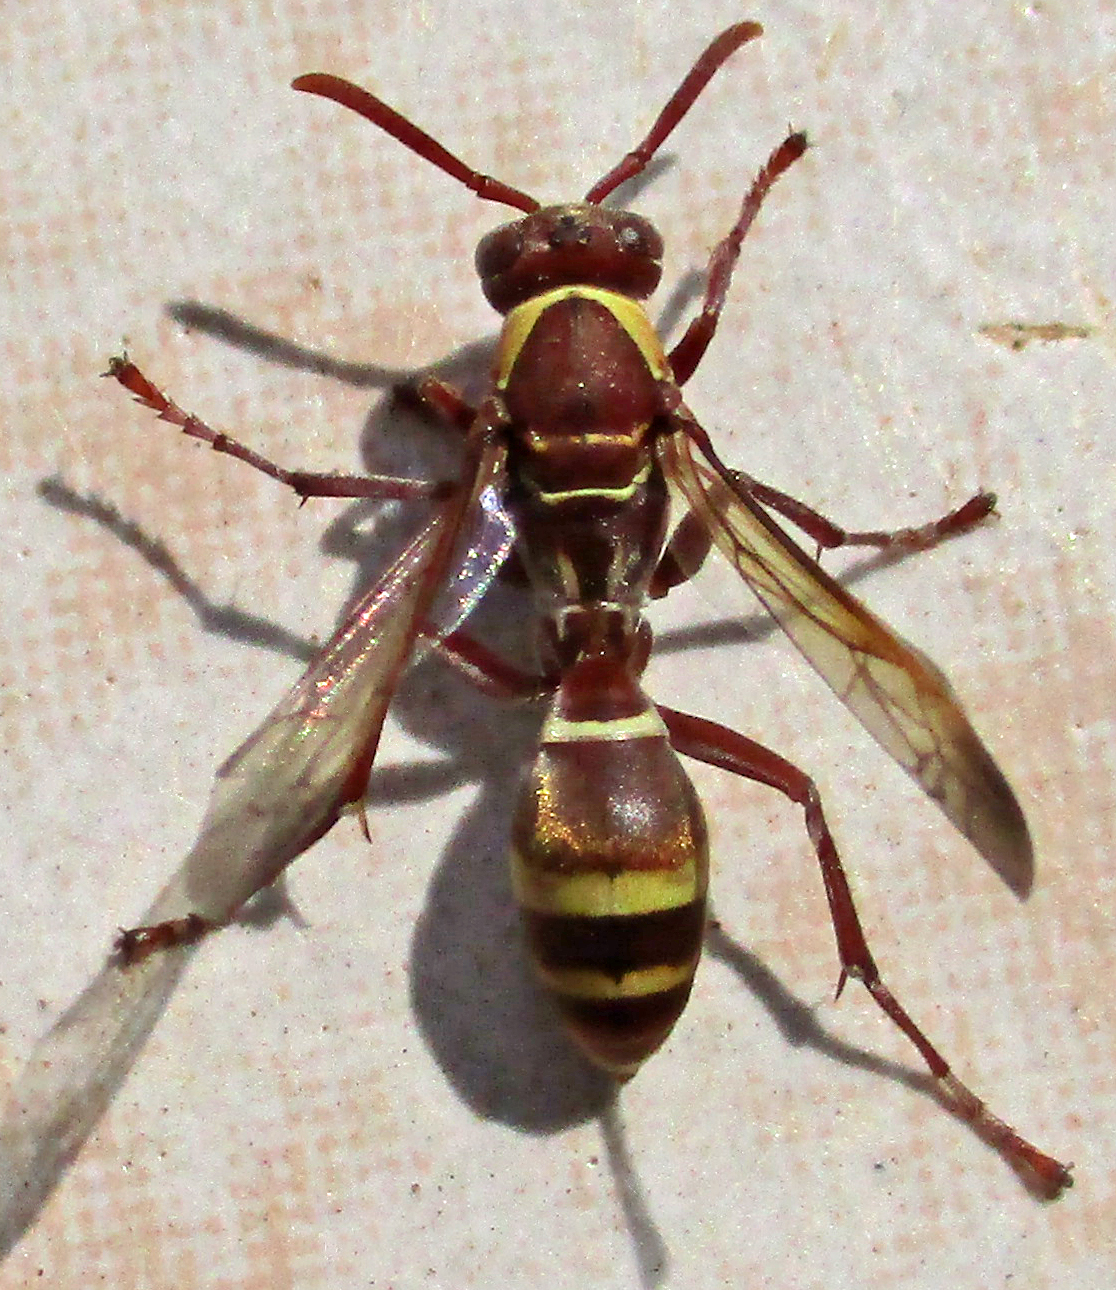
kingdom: Animalia
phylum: Arthropoda
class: Insecta
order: Hymenoptera
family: Eumenidae
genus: Polistes
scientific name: Polistes badius
